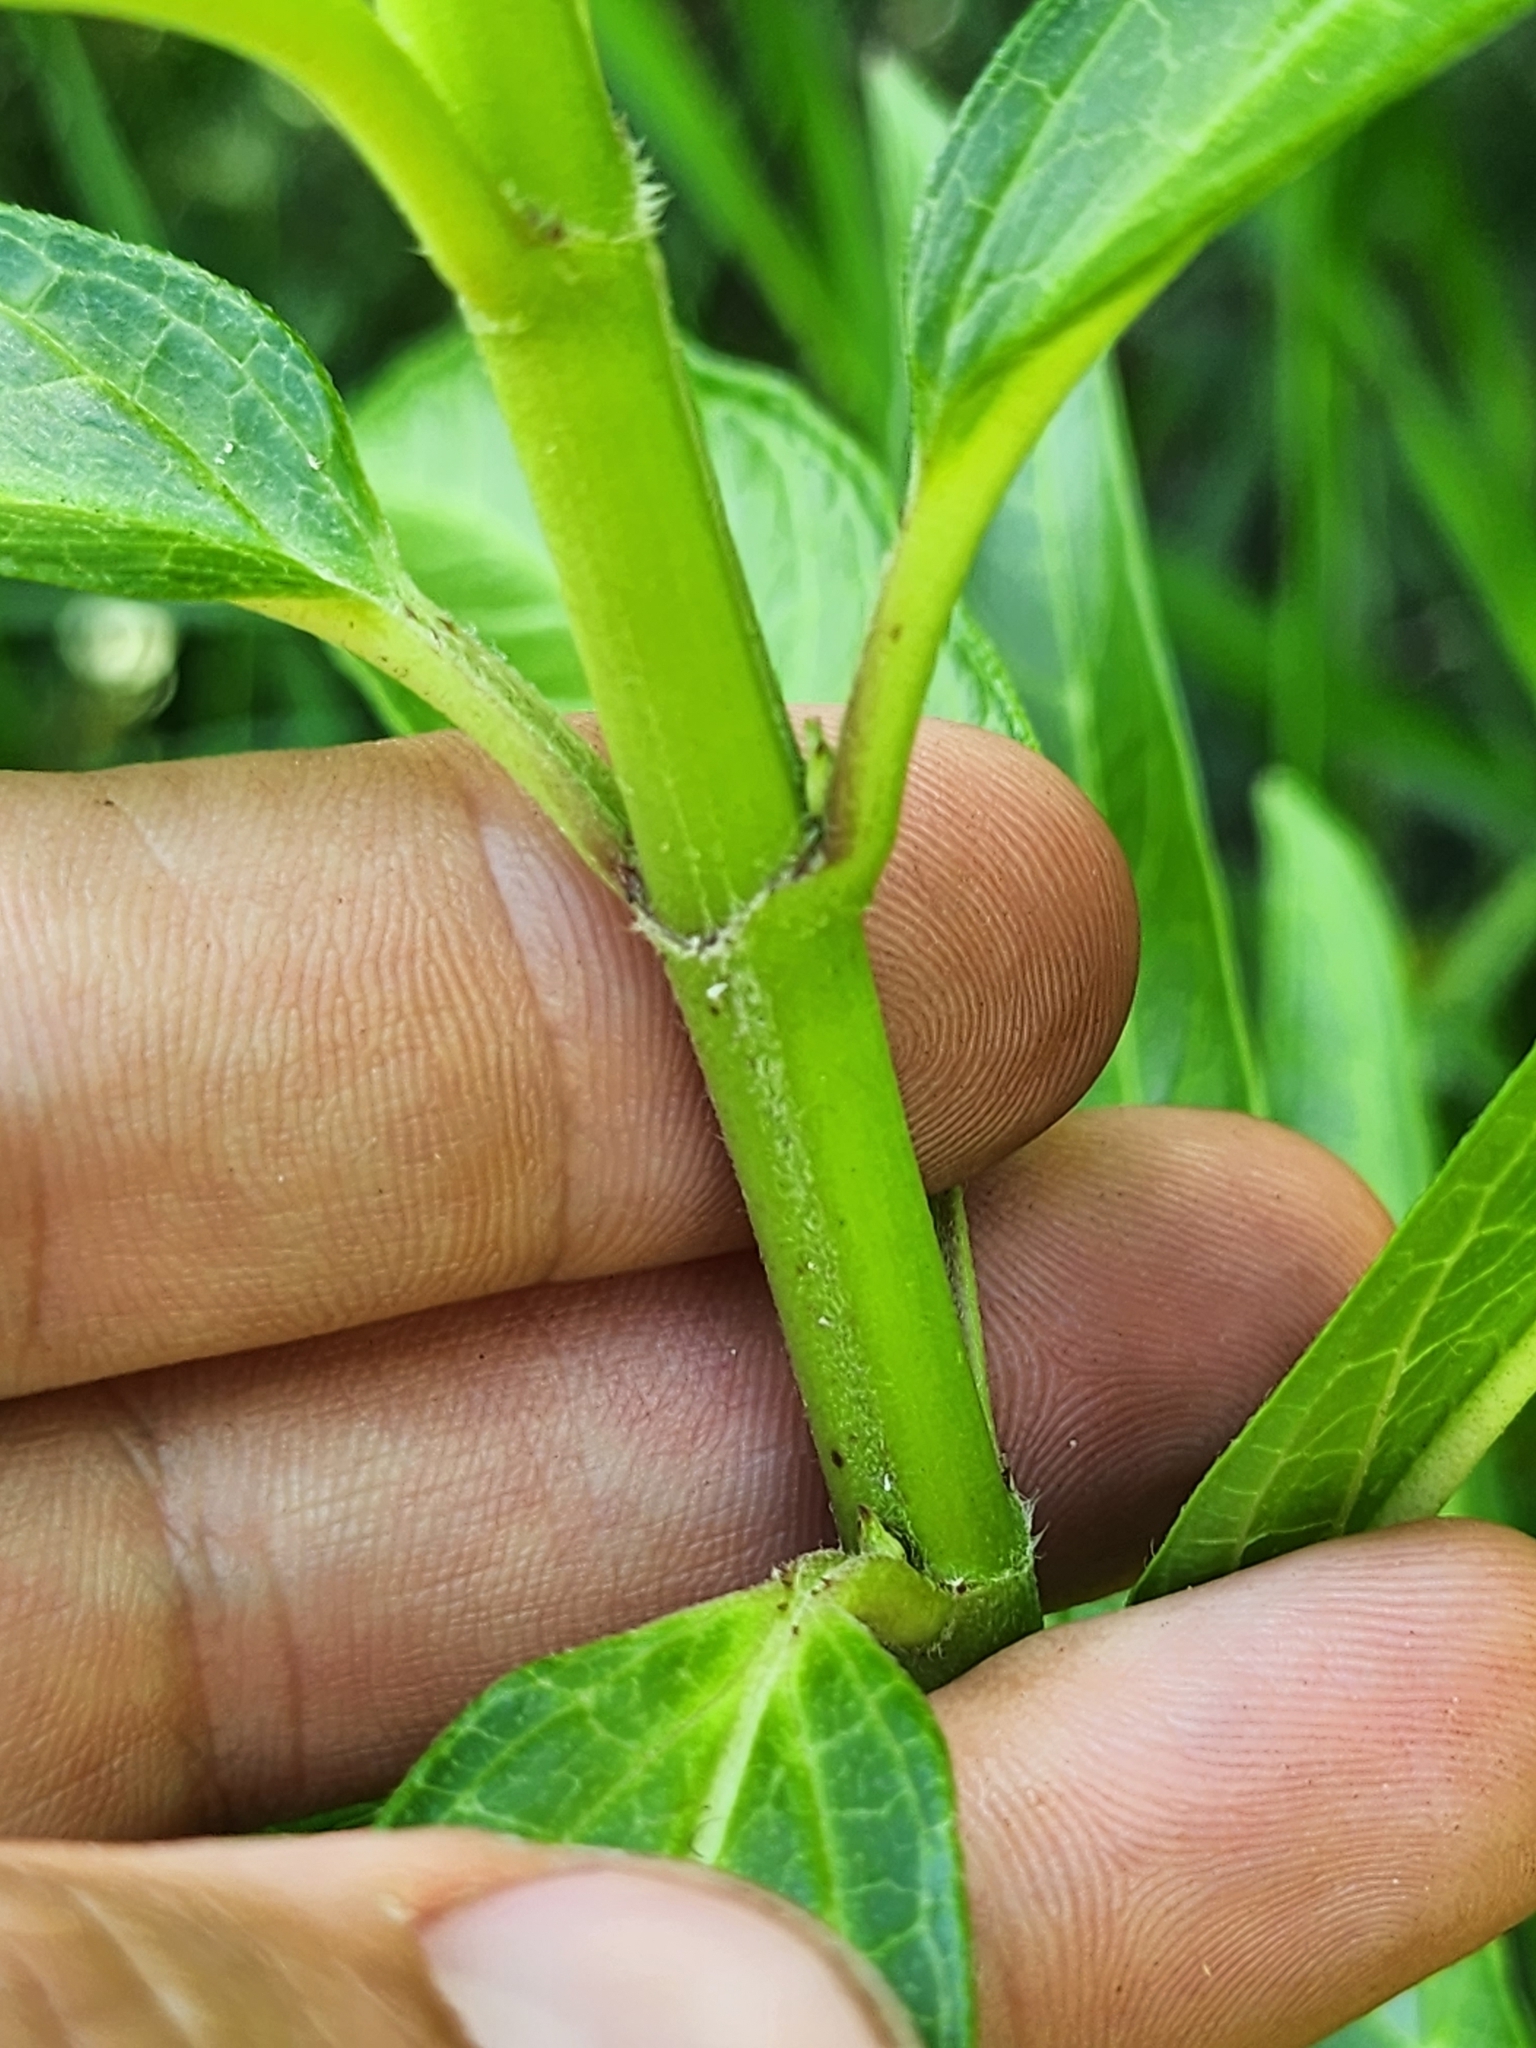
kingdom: Plantae
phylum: Tracheophyta
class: Magnoliopsida
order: Gentianales
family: Apocynaceae
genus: Asclepias
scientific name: Asclepias incarnata
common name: Swamp milkweed
